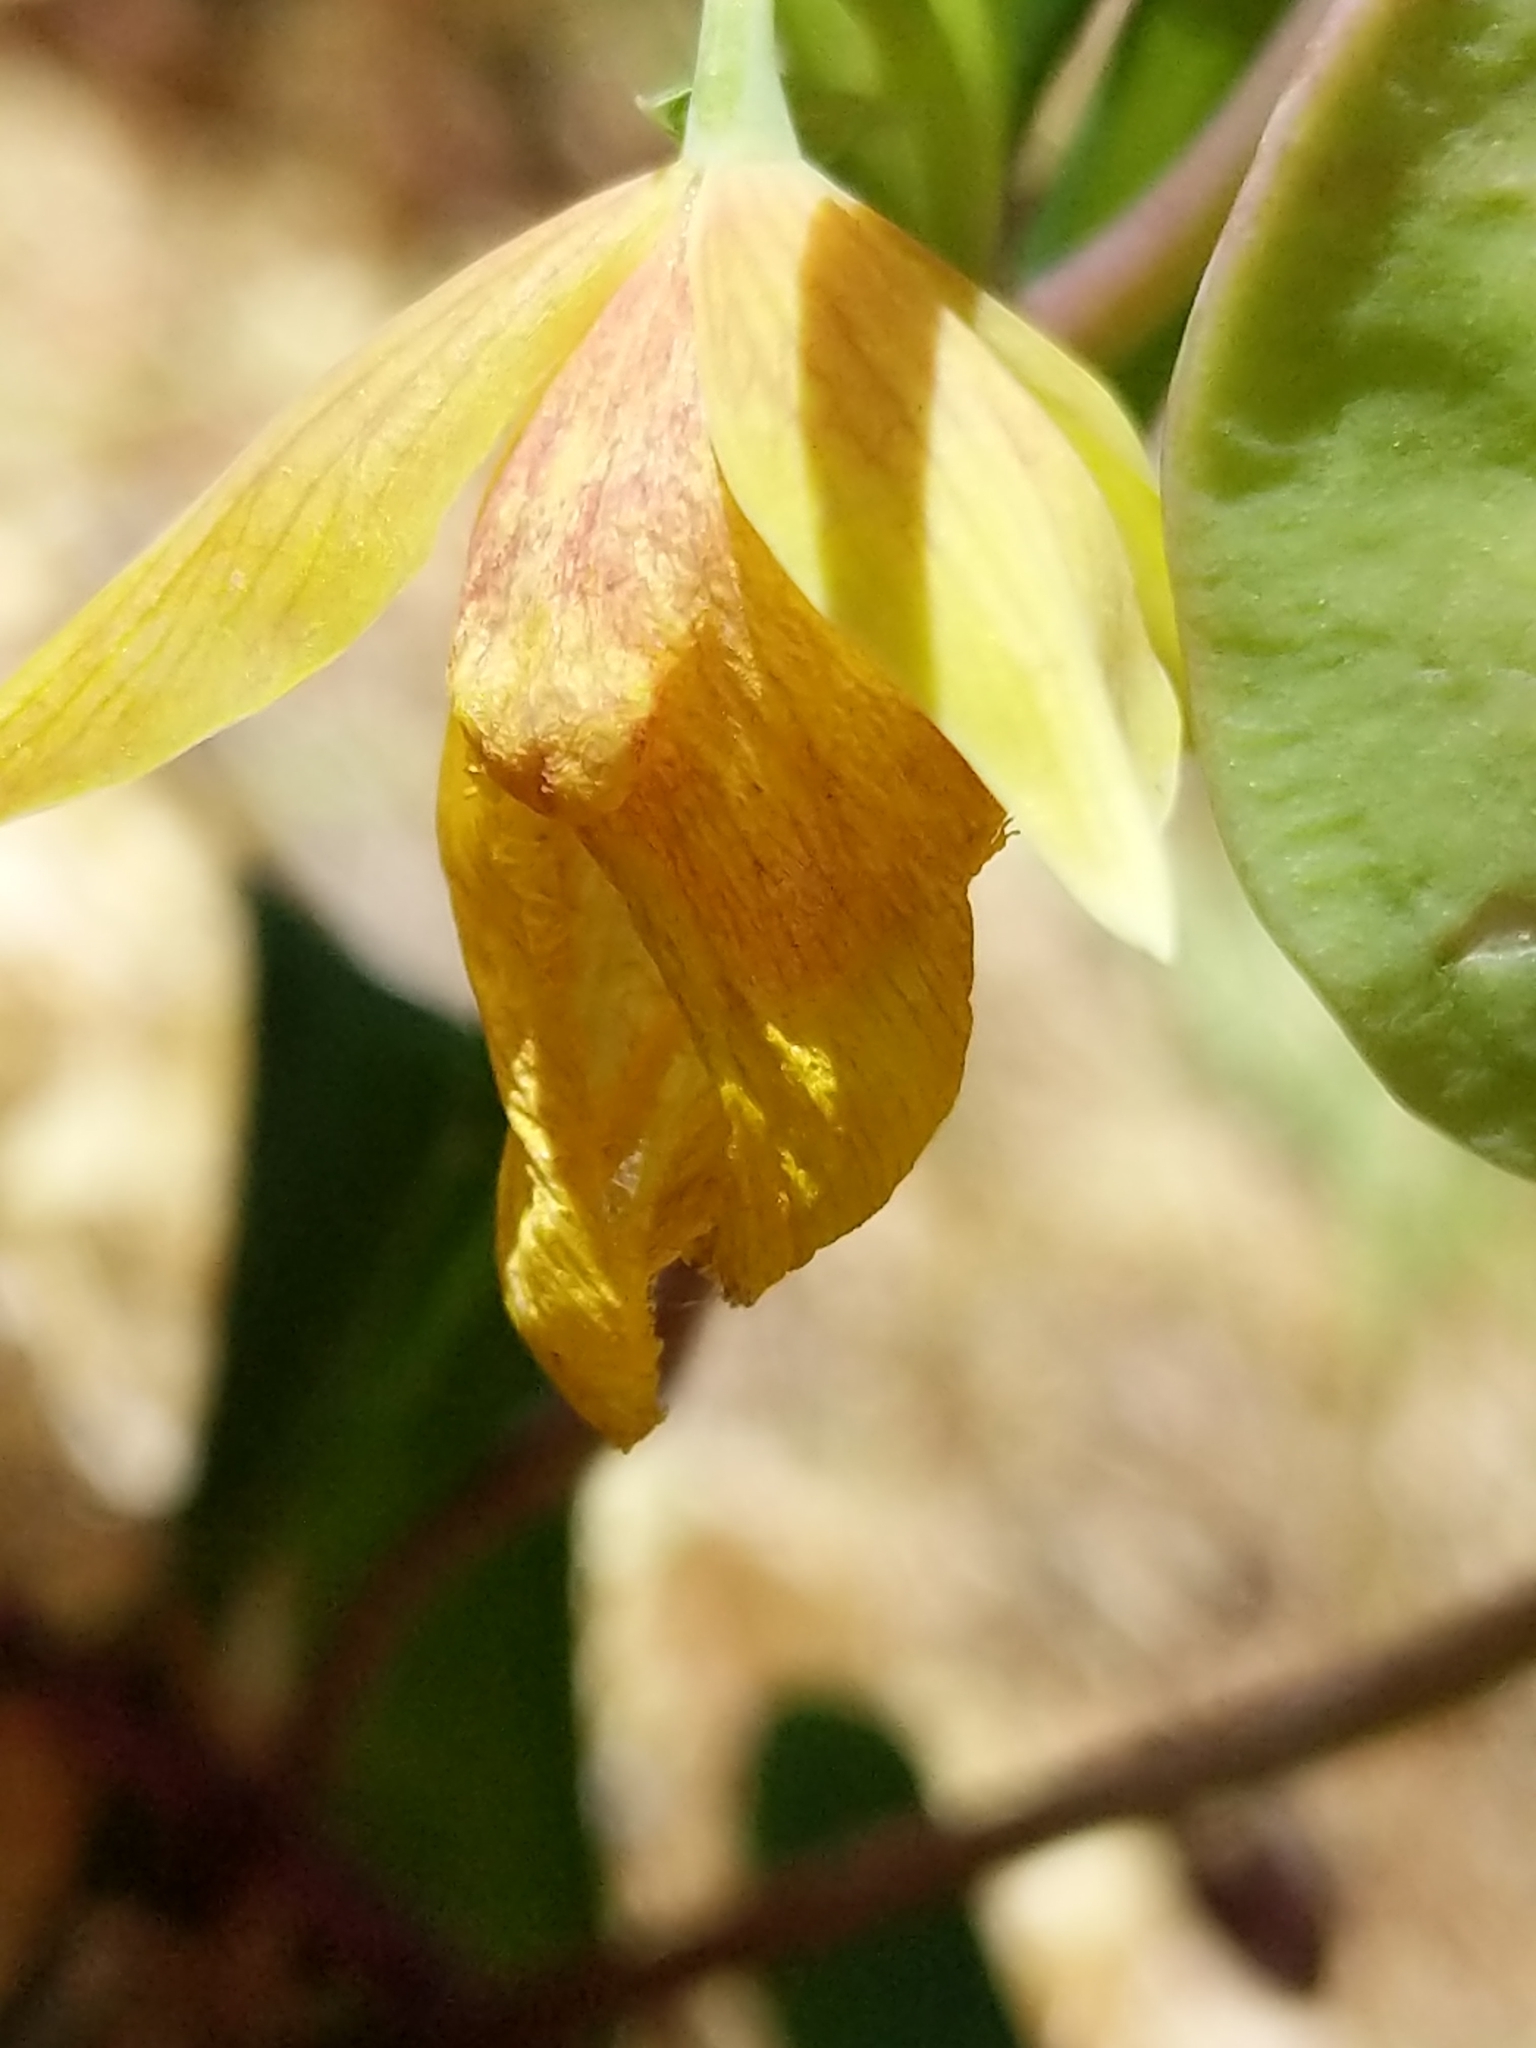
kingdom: Plantae
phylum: Tracheophyta
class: Liliopsida
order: Liliales
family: Liliaceae
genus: Calochortus
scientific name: Calochortus pulchellus
